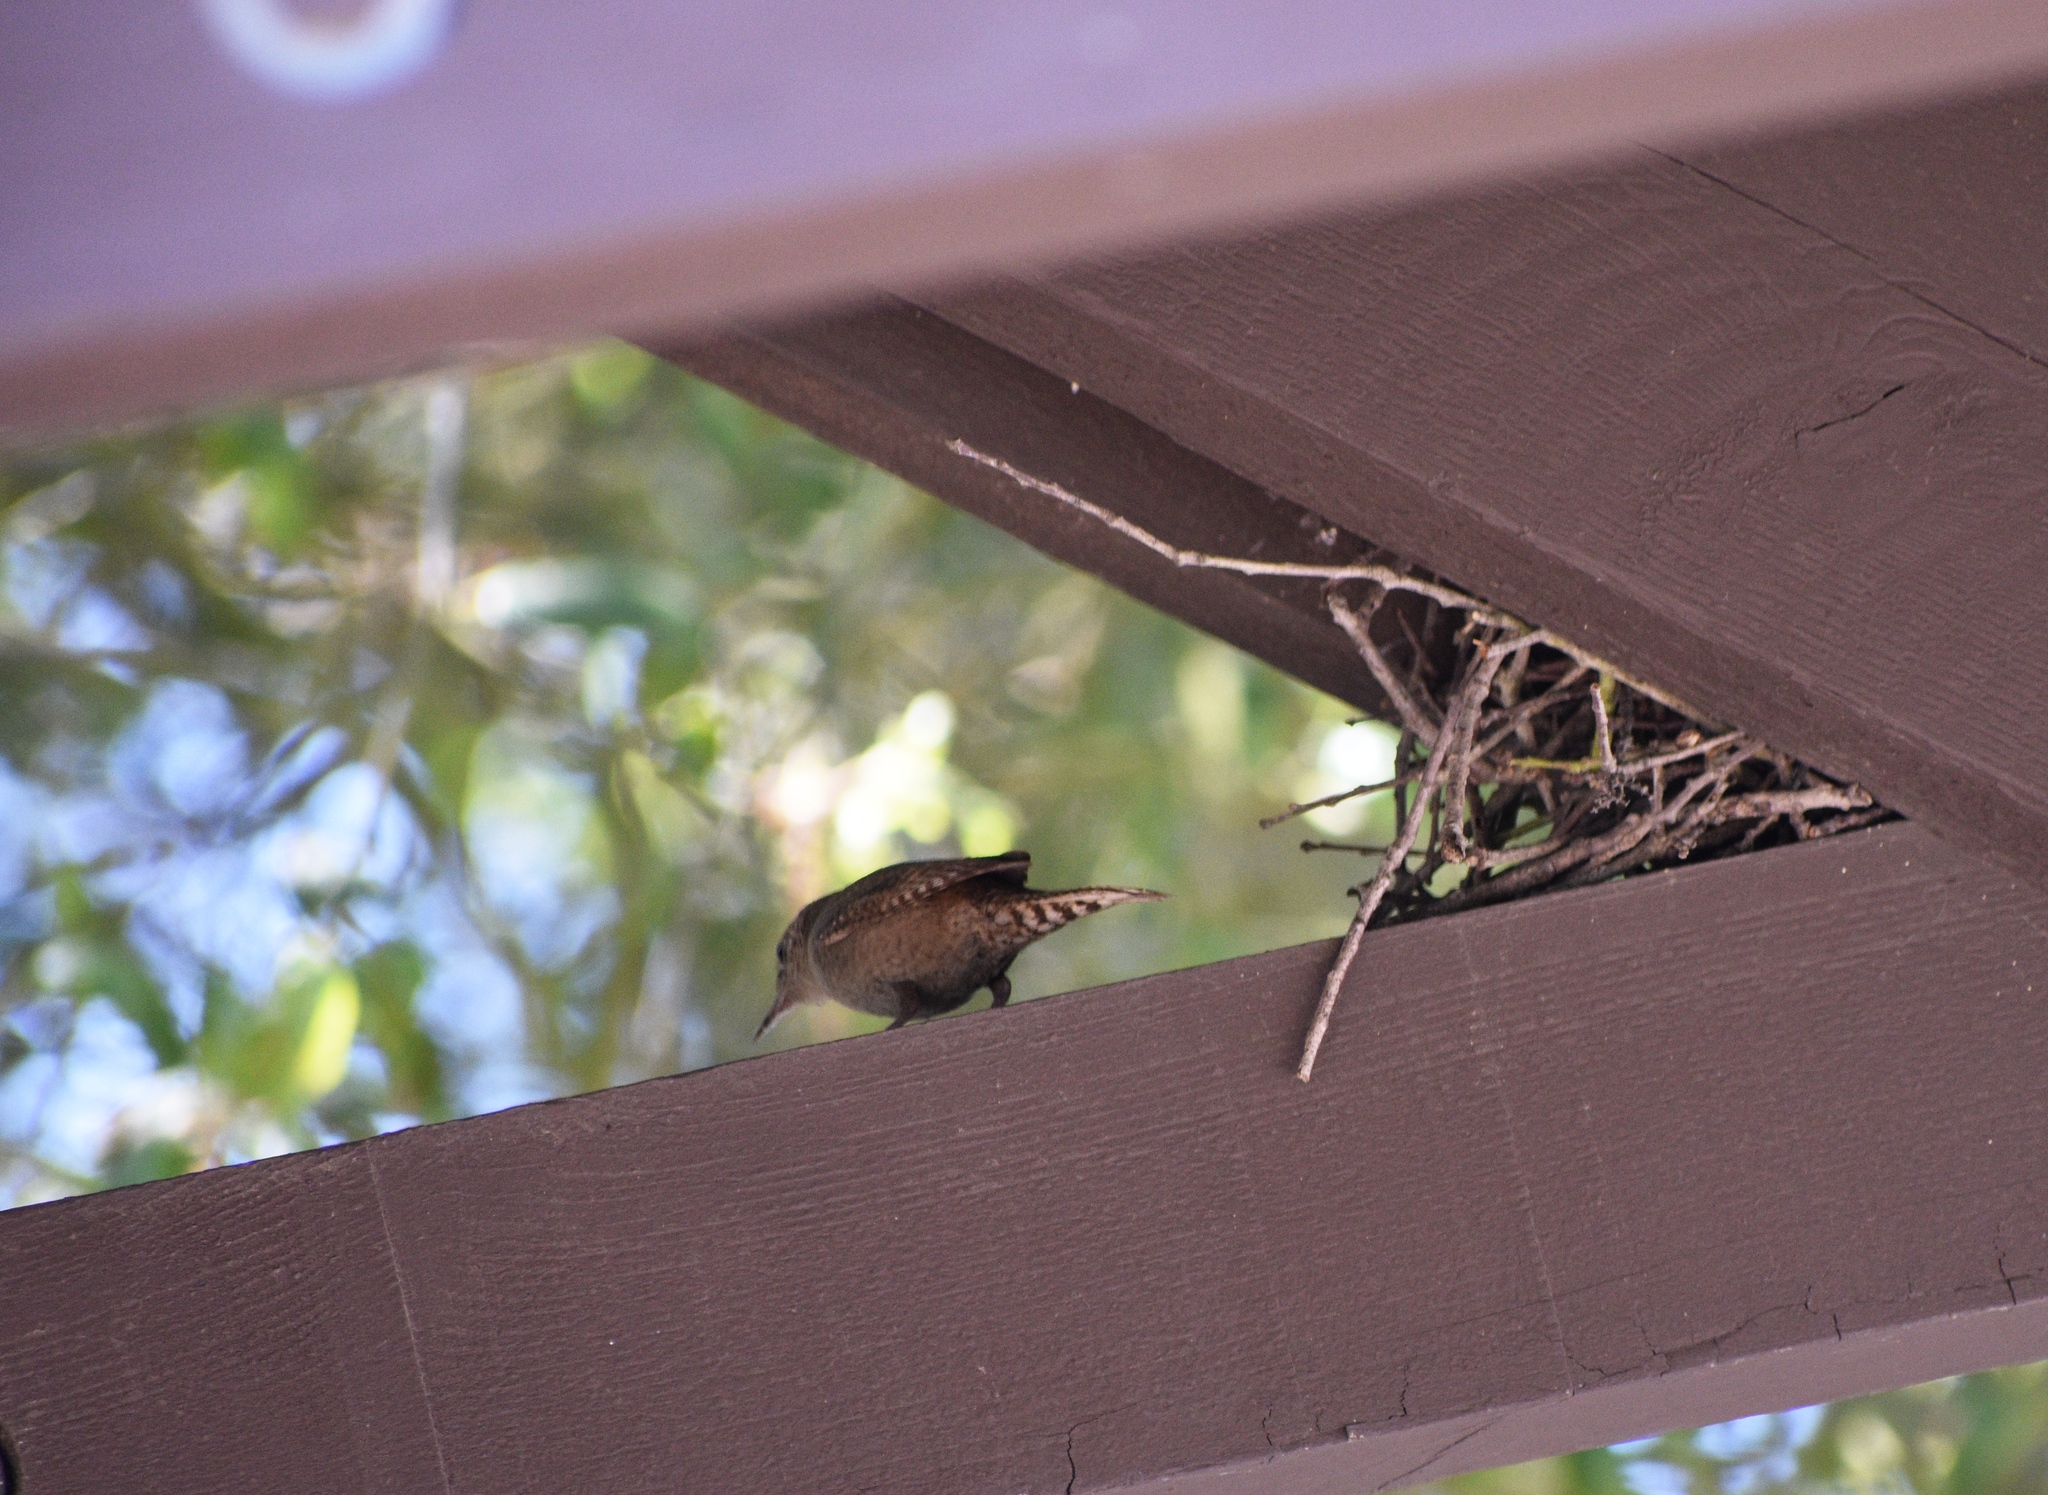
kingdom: Animalia
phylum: Chordata
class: Aves
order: Passeriformes
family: Troglodytidae
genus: Troglodytes
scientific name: Troglodytes aedon
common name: House wren
